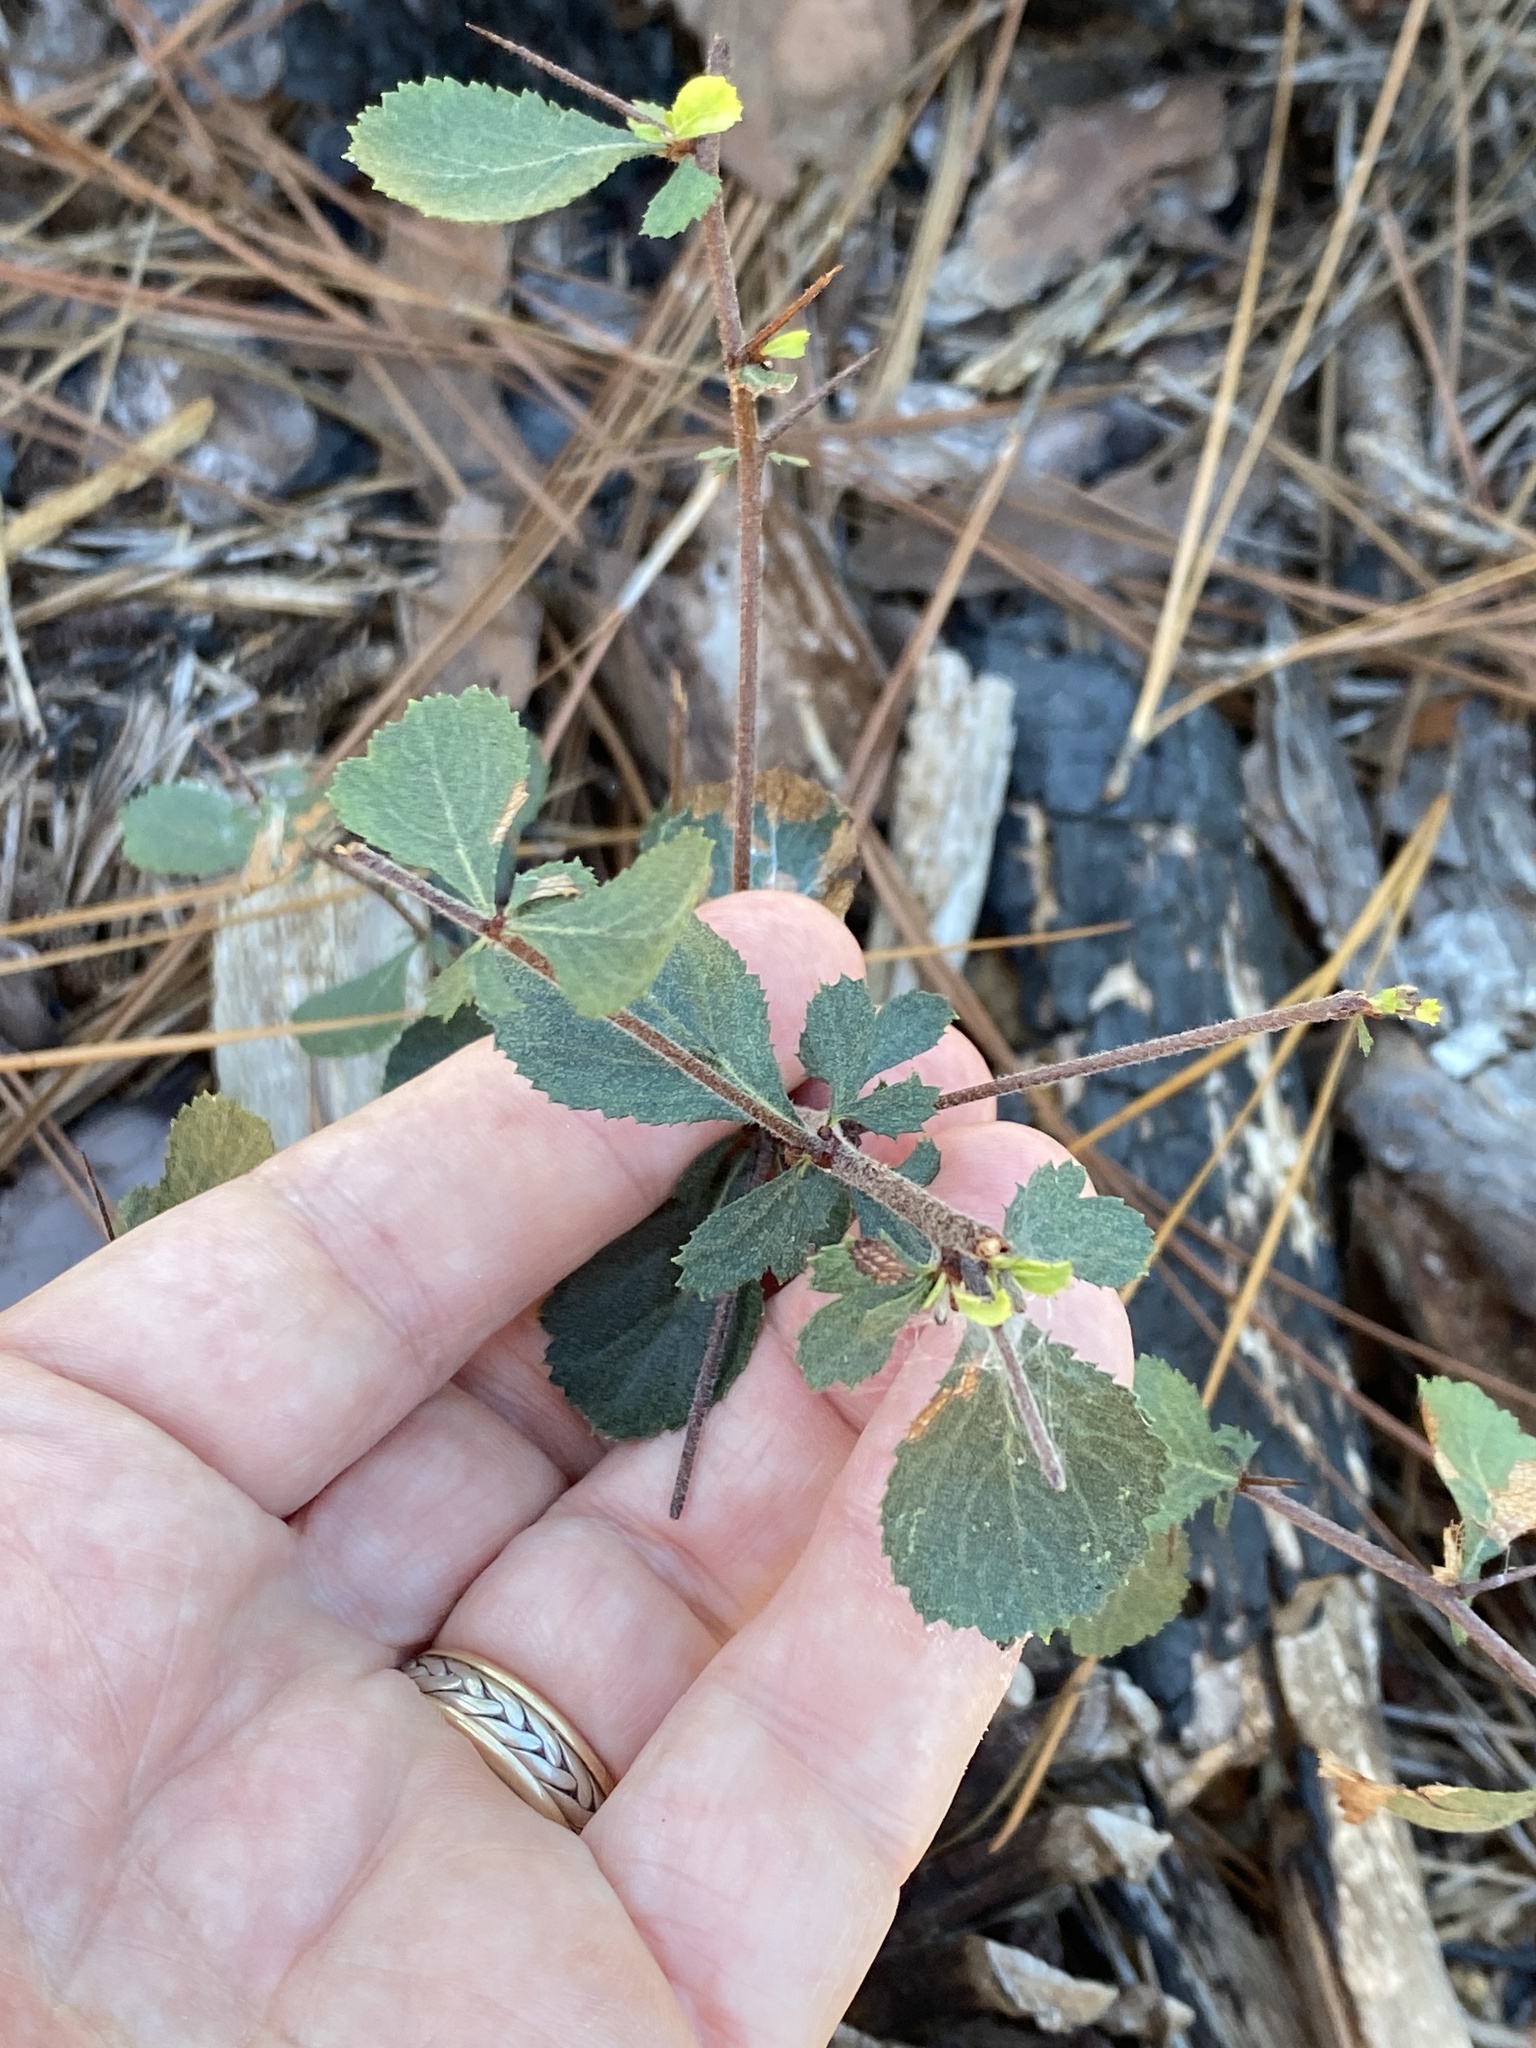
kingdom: Plantae
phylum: Tracheophyta
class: Magnoliopsida
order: Rosales
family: Rosaceae
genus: Crataegus
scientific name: Crataegus munda
